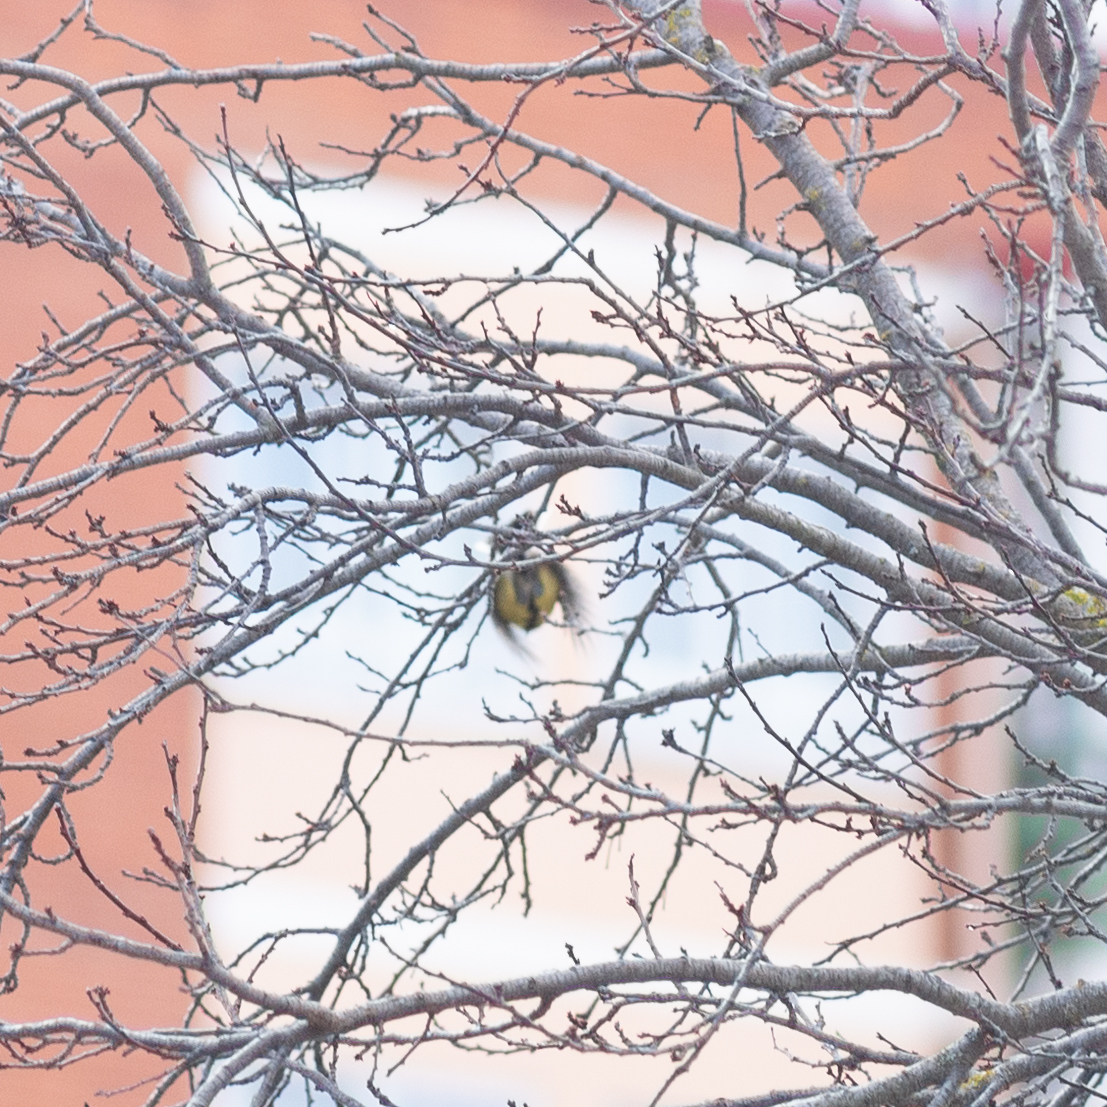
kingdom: Animalia
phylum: Chordata
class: Aves
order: Passeriformes
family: Paridae
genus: Parus
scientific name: Parus major
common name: Great tit
